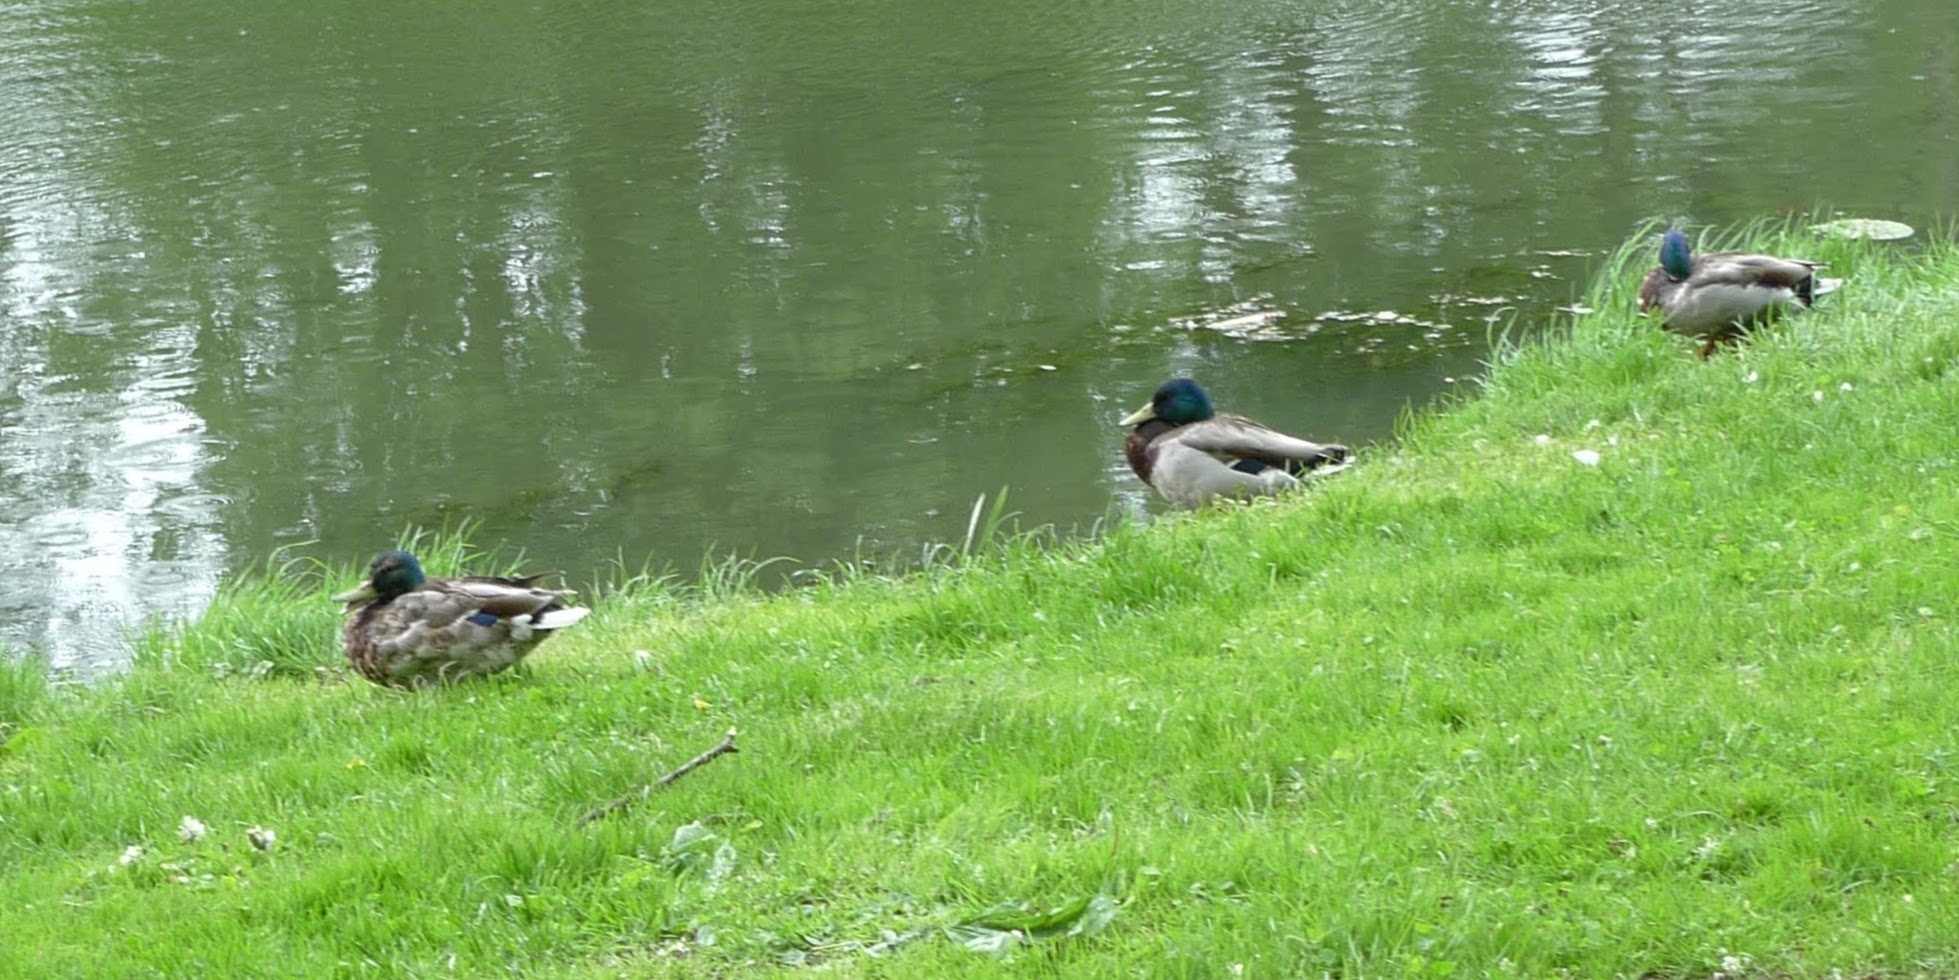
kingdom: Animalia
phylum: Chordata
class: Aves
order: Anseriformes
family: Anatidae
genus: Anas
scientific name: Anas platyrhynchos
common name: Mallard
